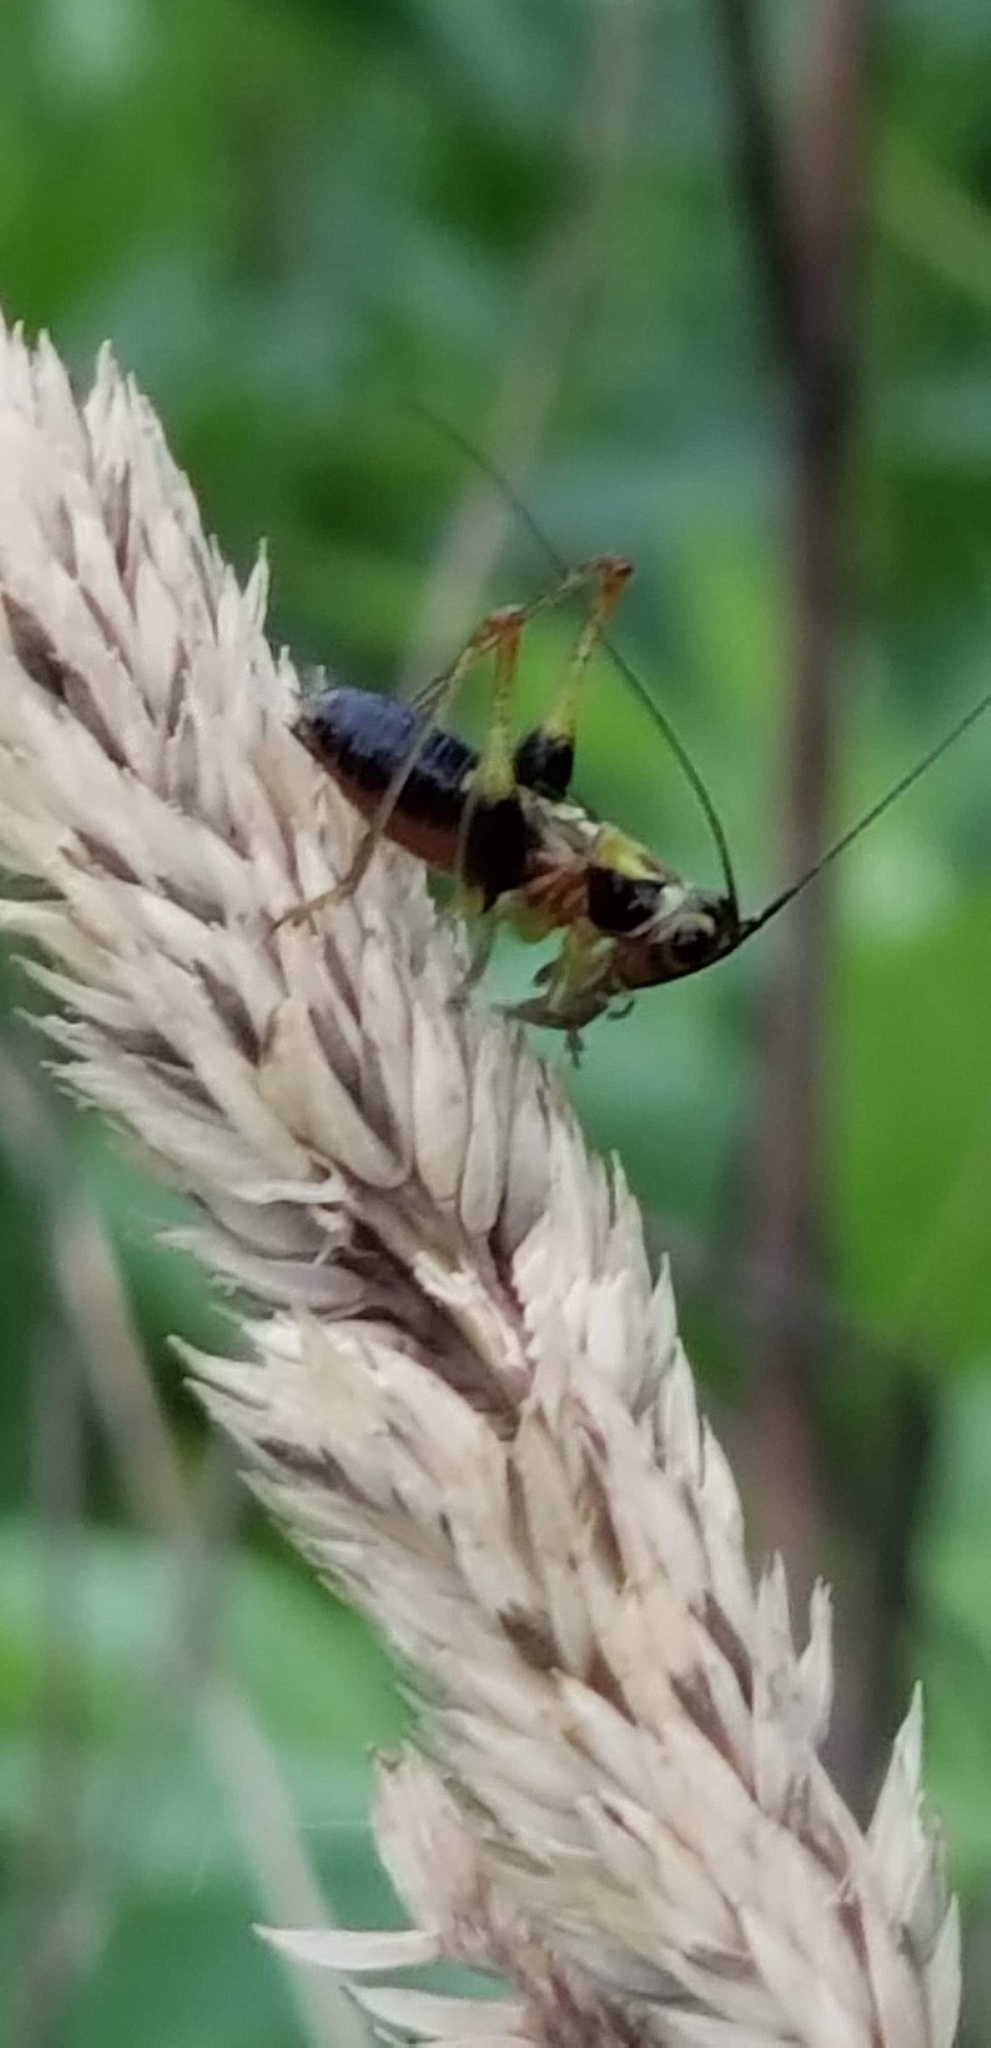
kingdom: Animalia
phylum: Arthropoda
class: Insecta
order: Orthoptera
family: Tettigoniidae
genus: Conocephalus
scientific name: Conocephalus nigropleurum
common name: Black-sided meadow katydid
